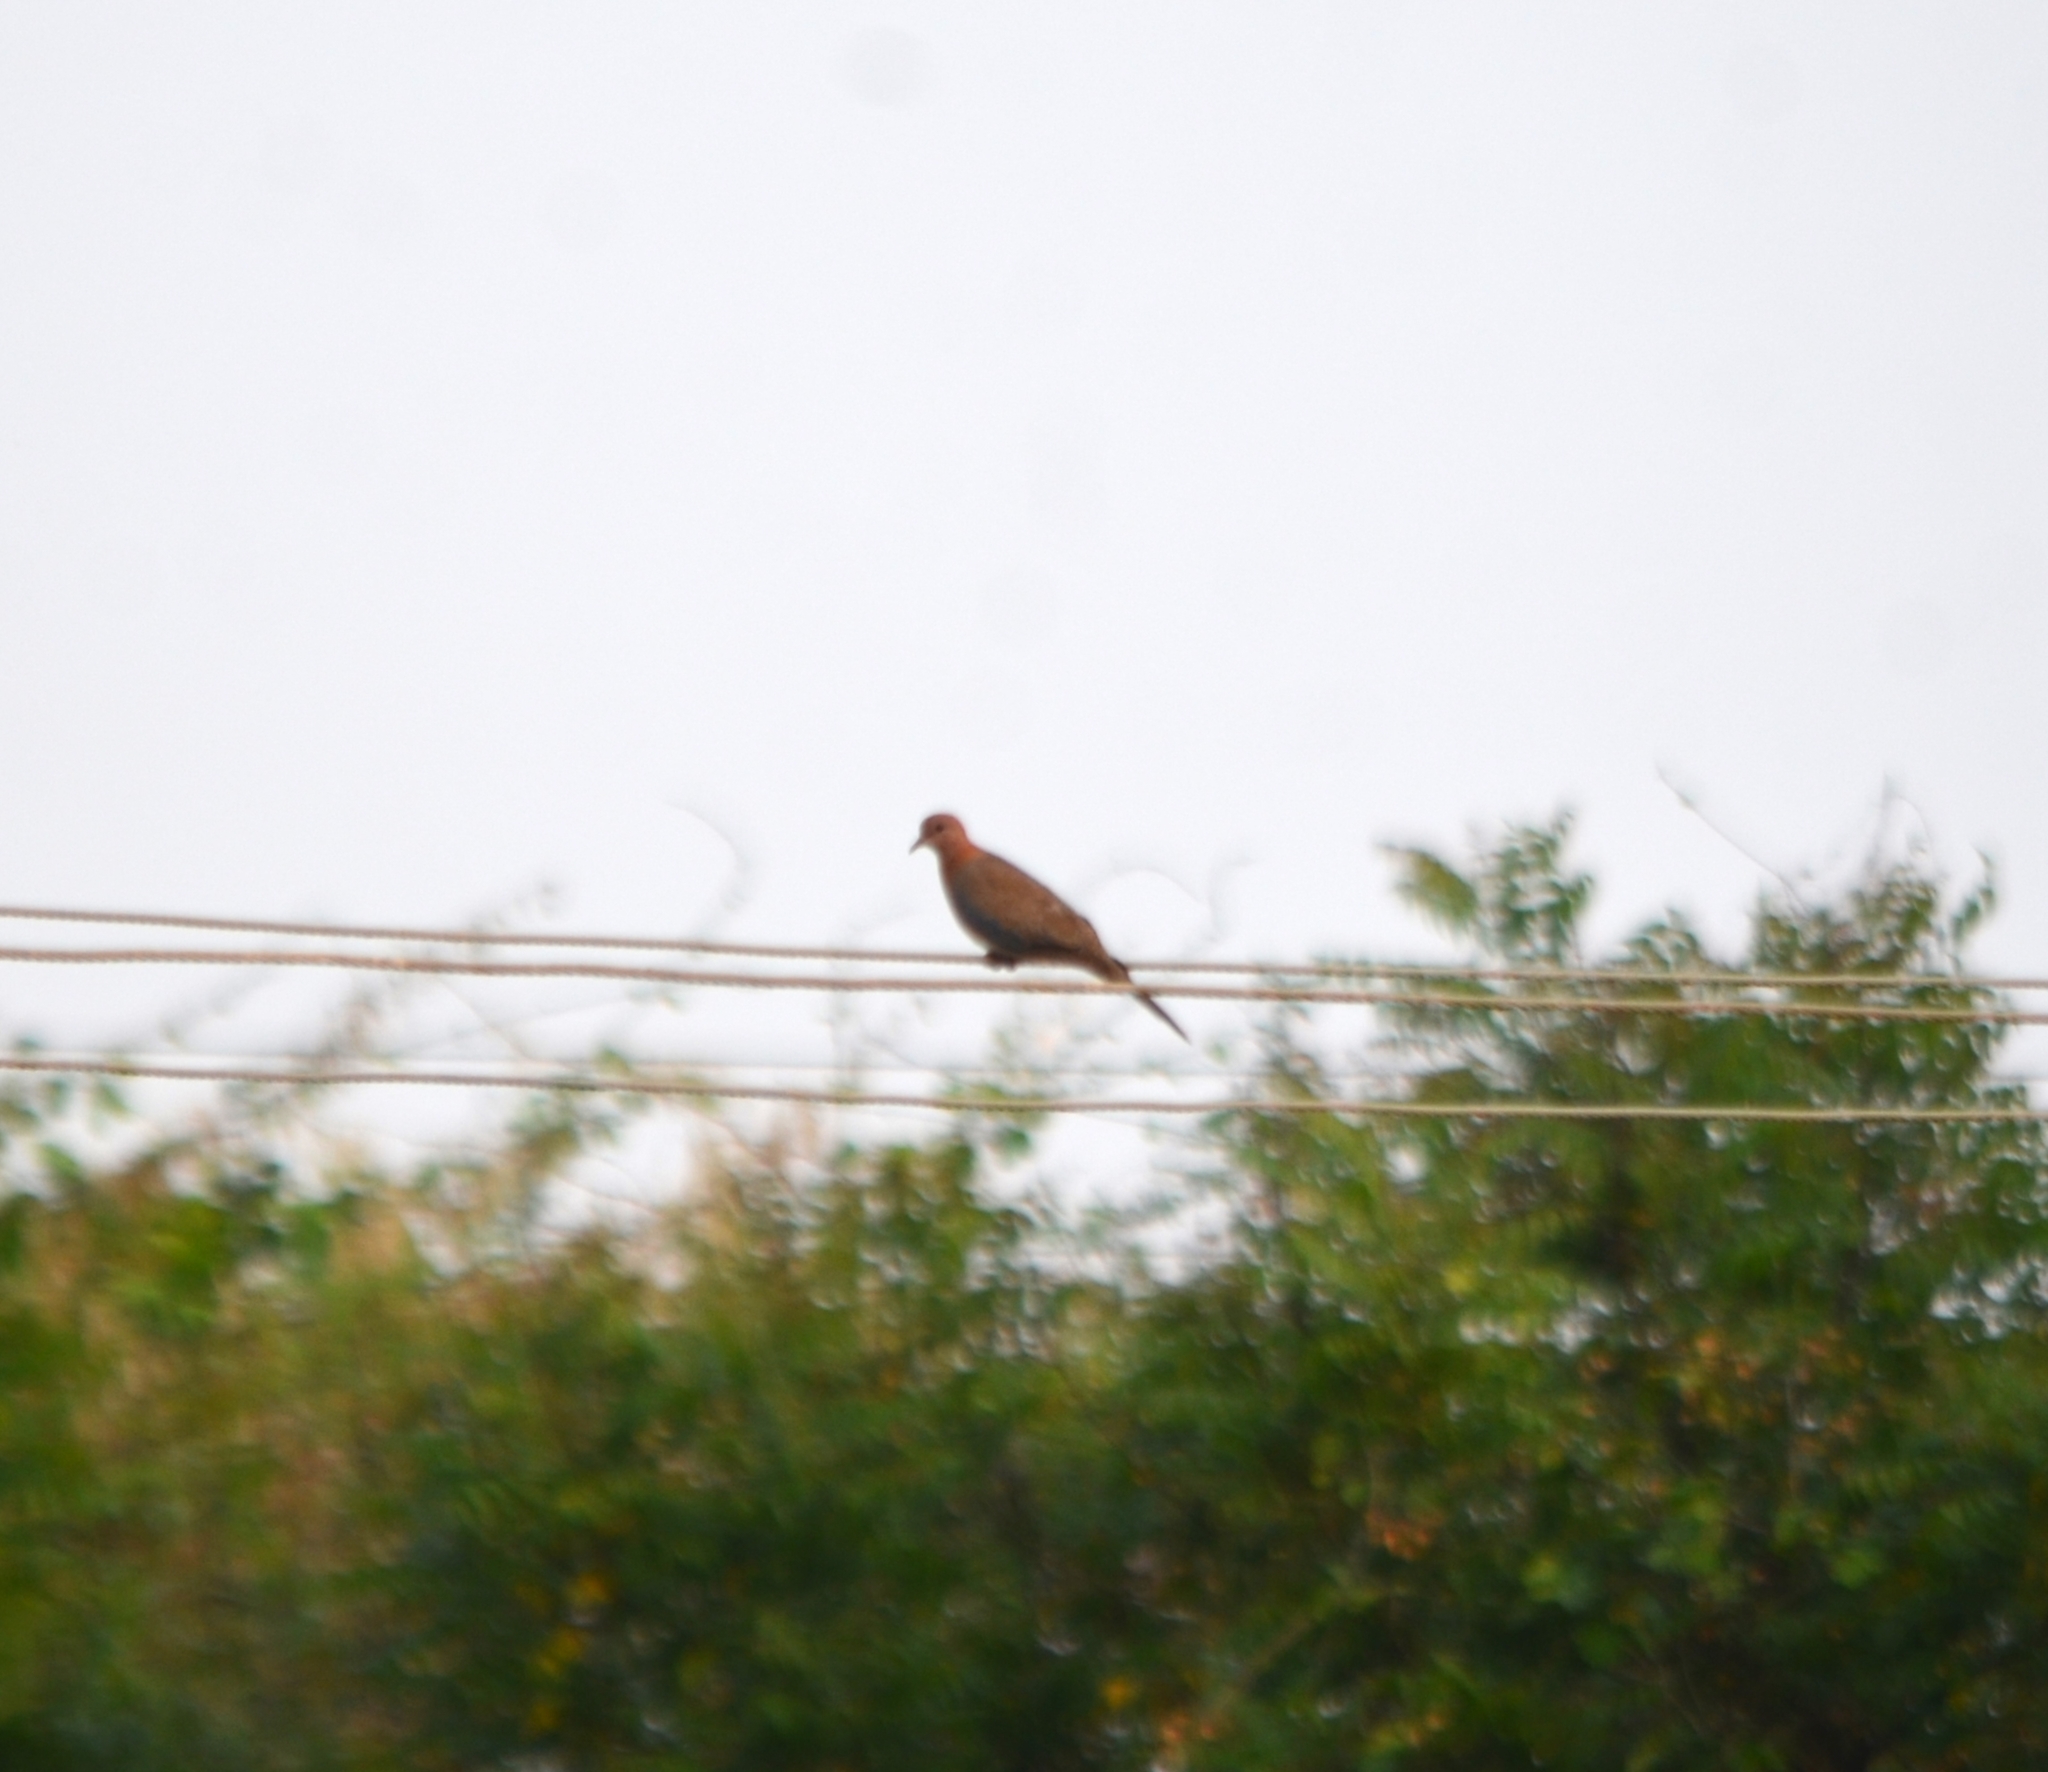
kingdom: Animalia
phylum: Chordata
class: Aves
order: Columbiformes
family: Columbidae
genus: Spilopelia
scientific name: Spilopelia senegalensis
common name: Laughing dove
